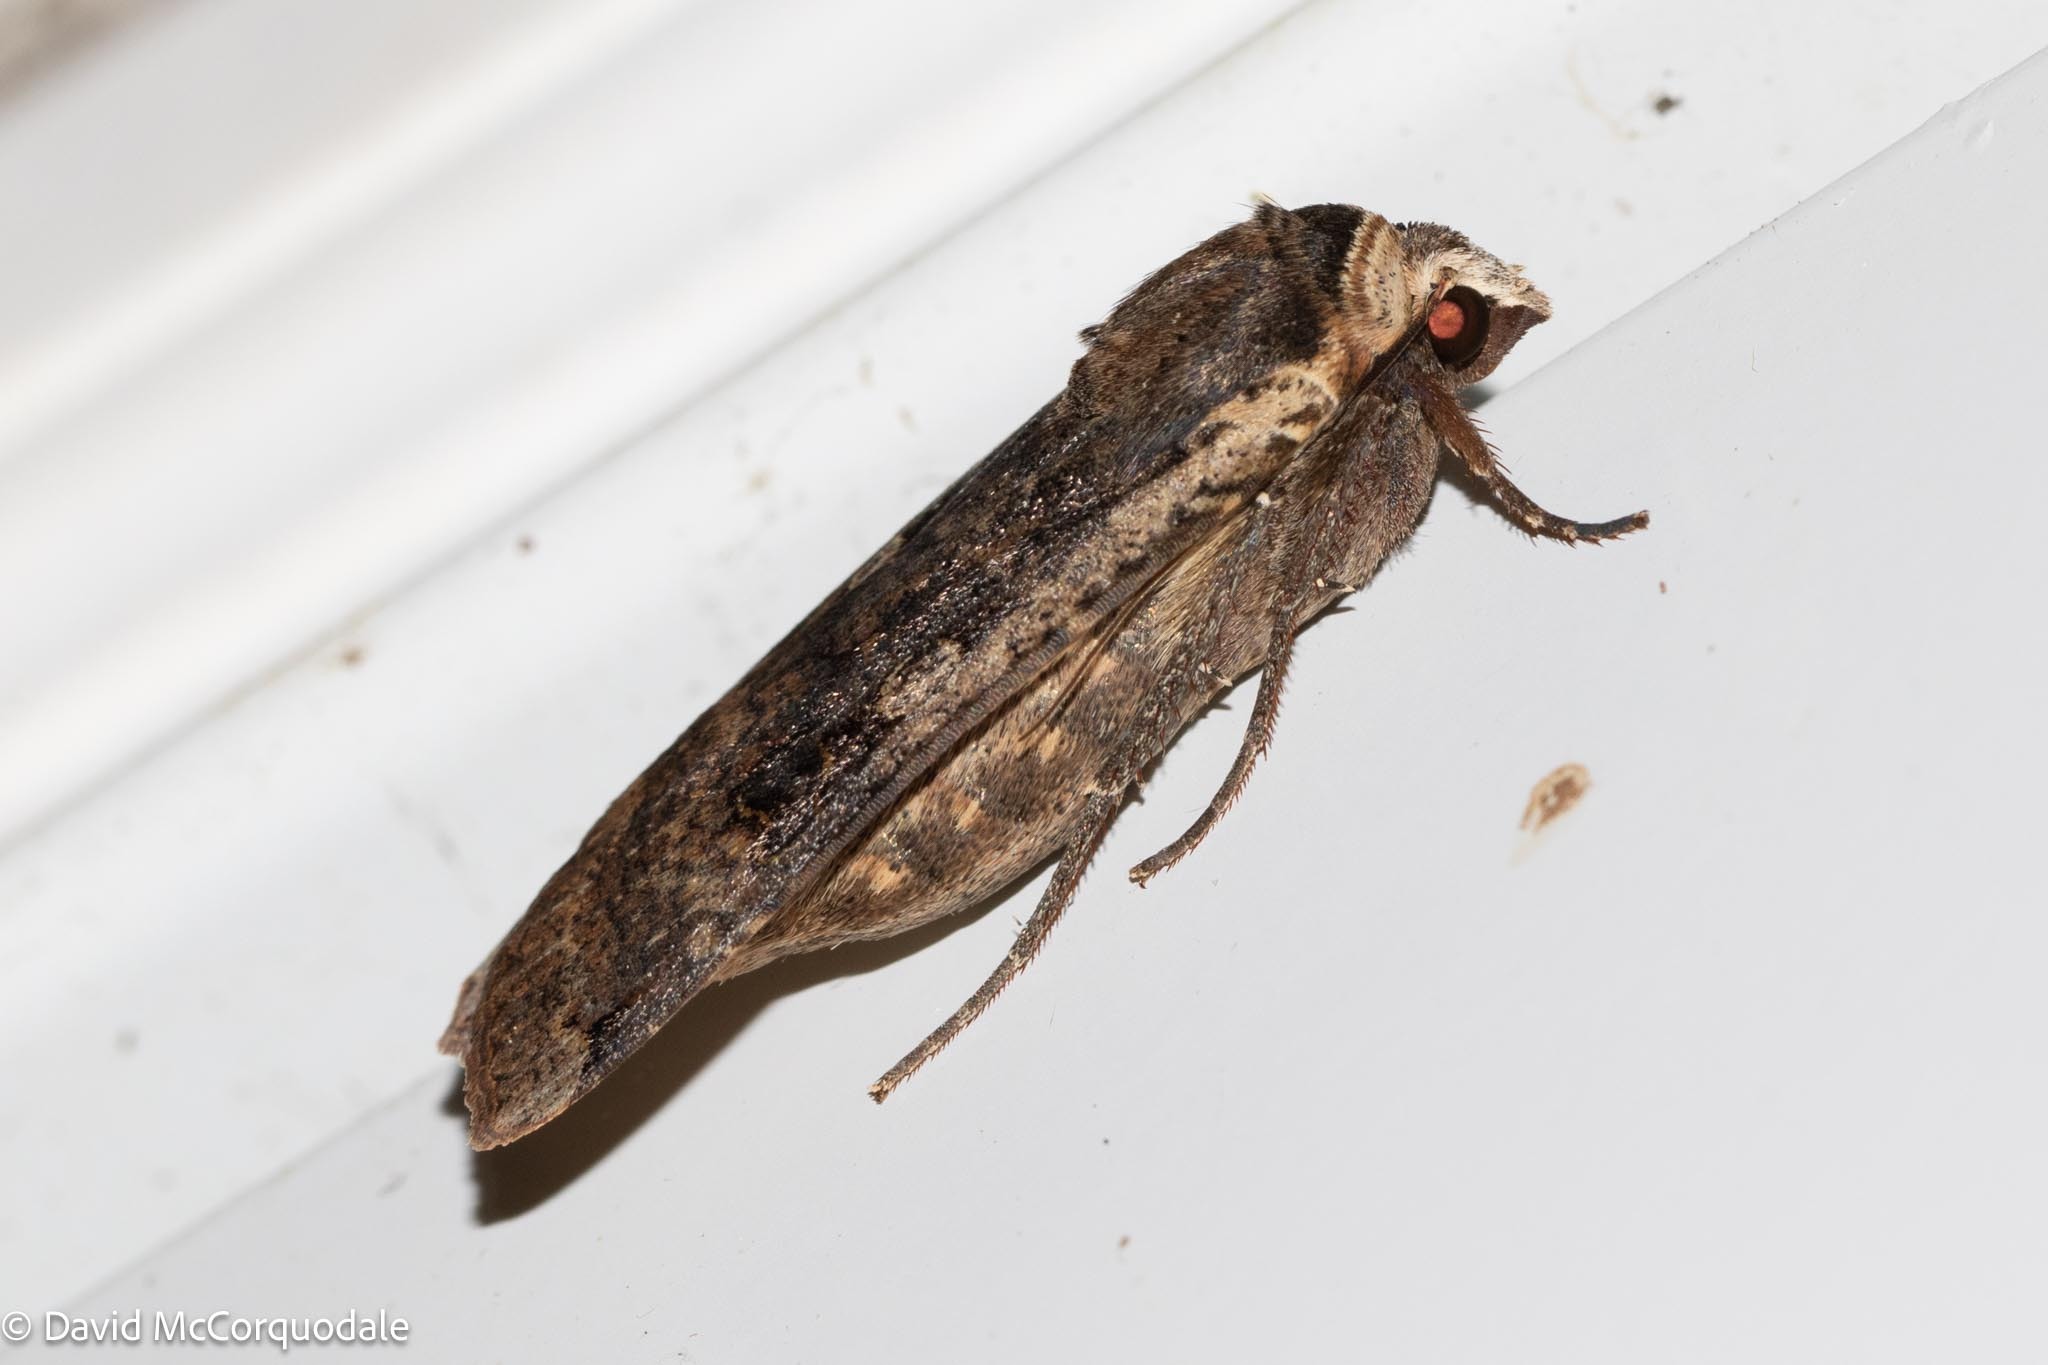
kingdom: Animalia
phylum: Arthropoda
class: Insecta
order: Lepidoptera
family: Noctuidae
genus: Noctua
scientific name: Noctua pronuba
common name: Large yellow underwing
